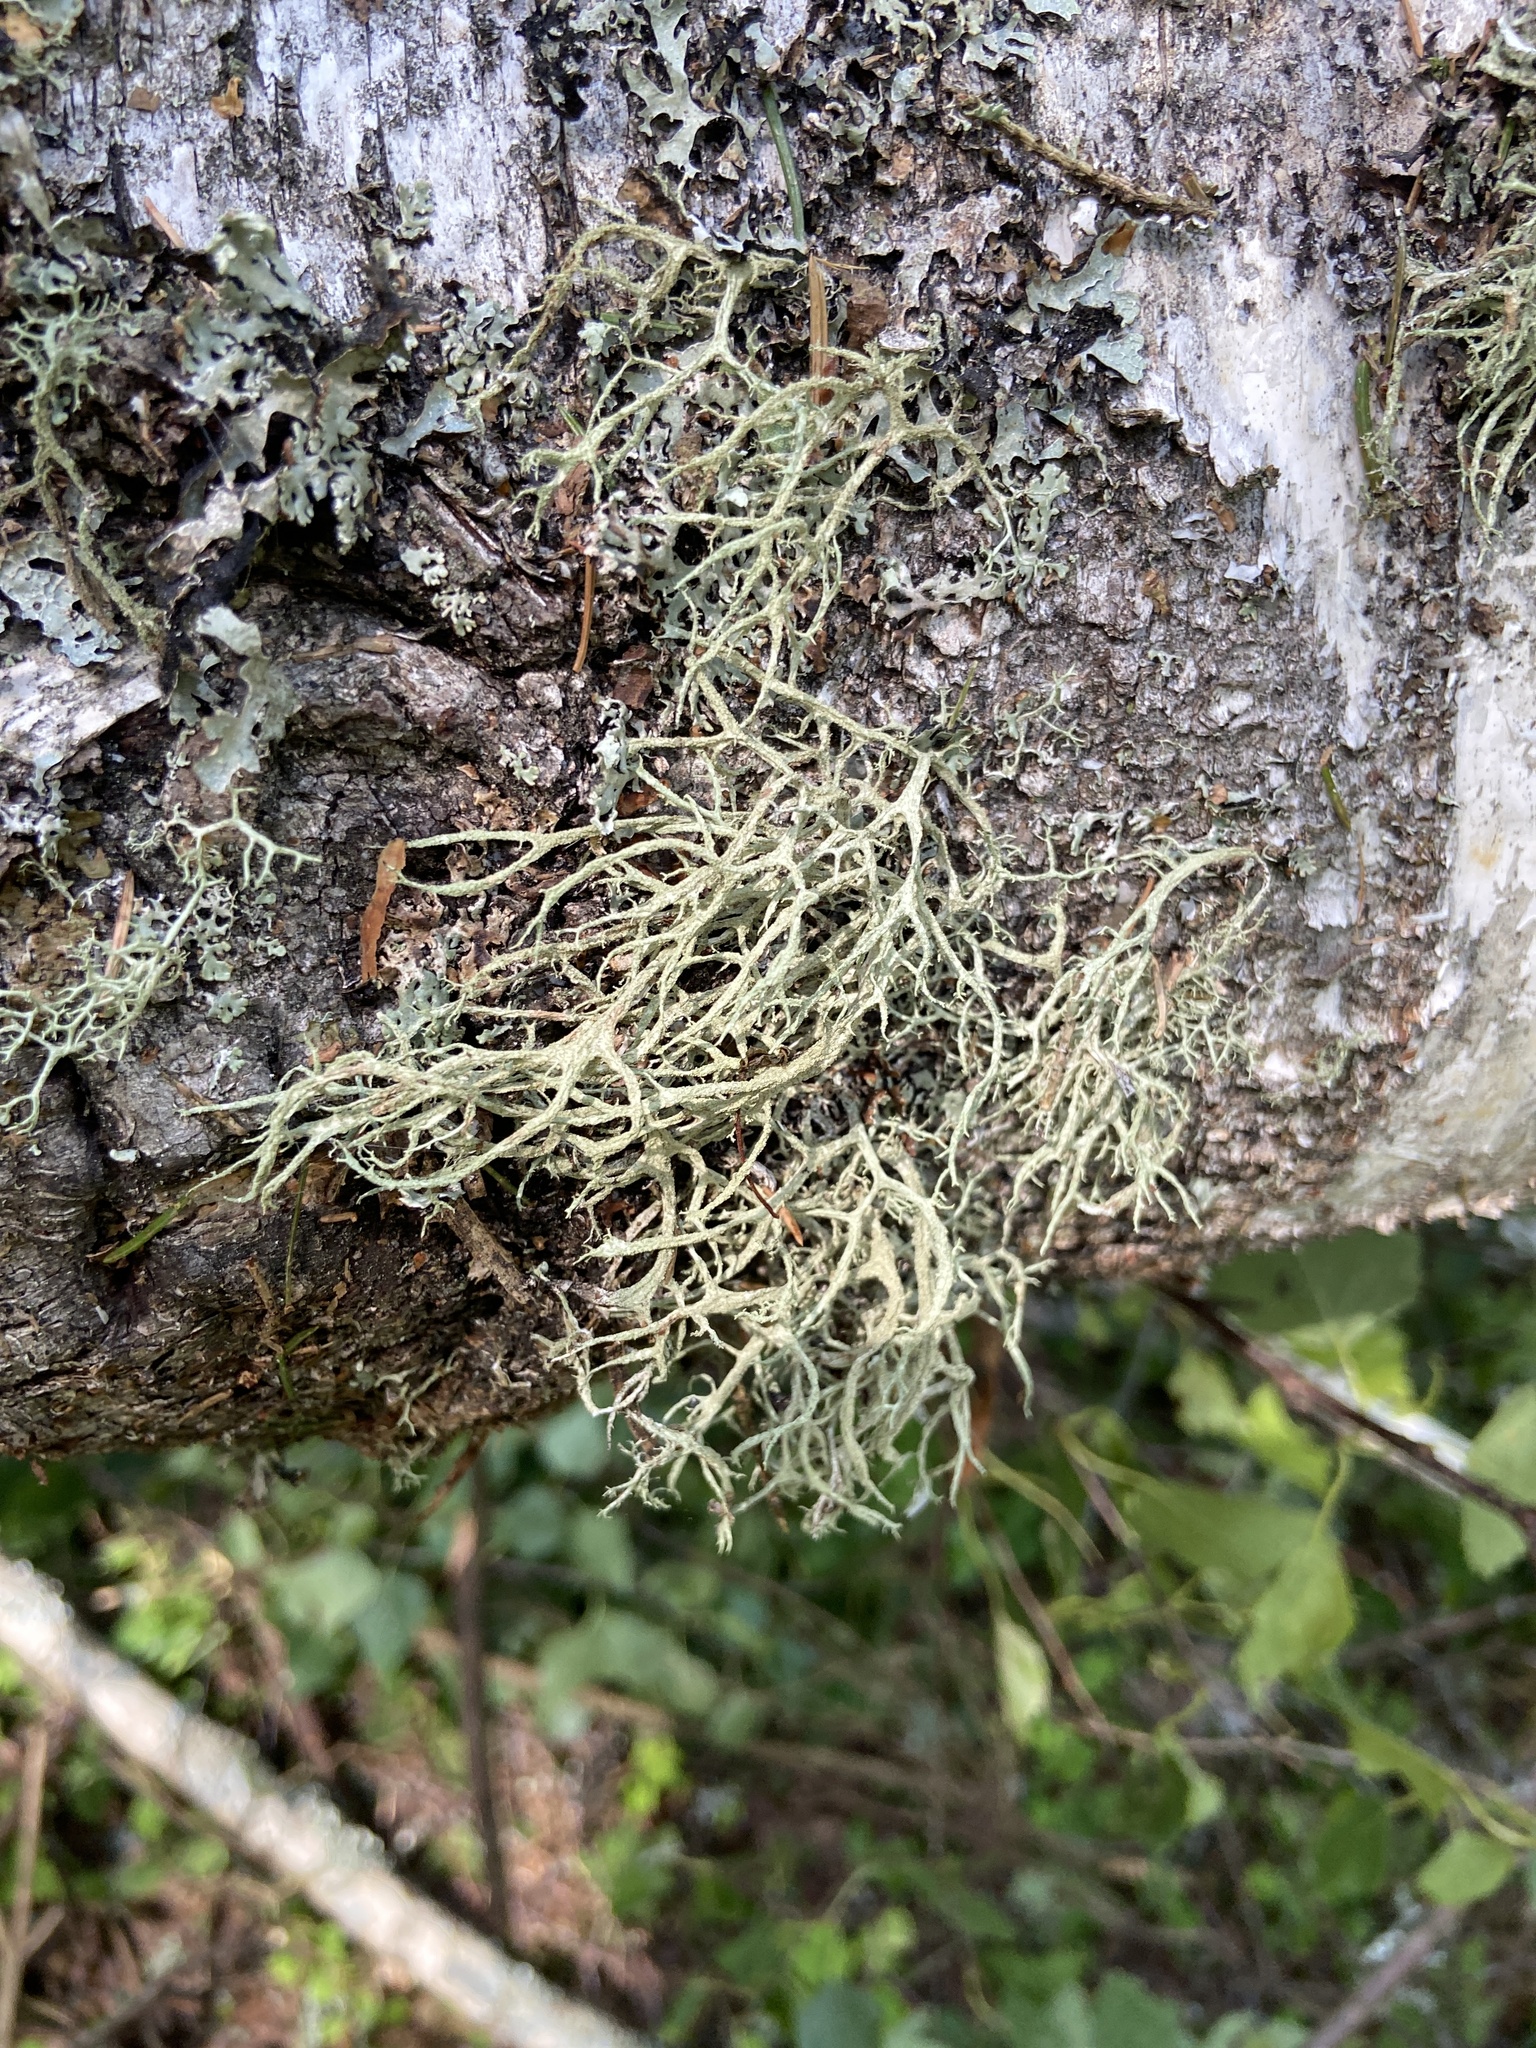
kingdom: Fungi
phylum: Ascomycota
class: Lecanoromycetes
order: Lecanorales
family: Parmeliaceae
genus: Evernia
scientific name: Evernia mesomorpha
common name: Boreal oak moss lichen
